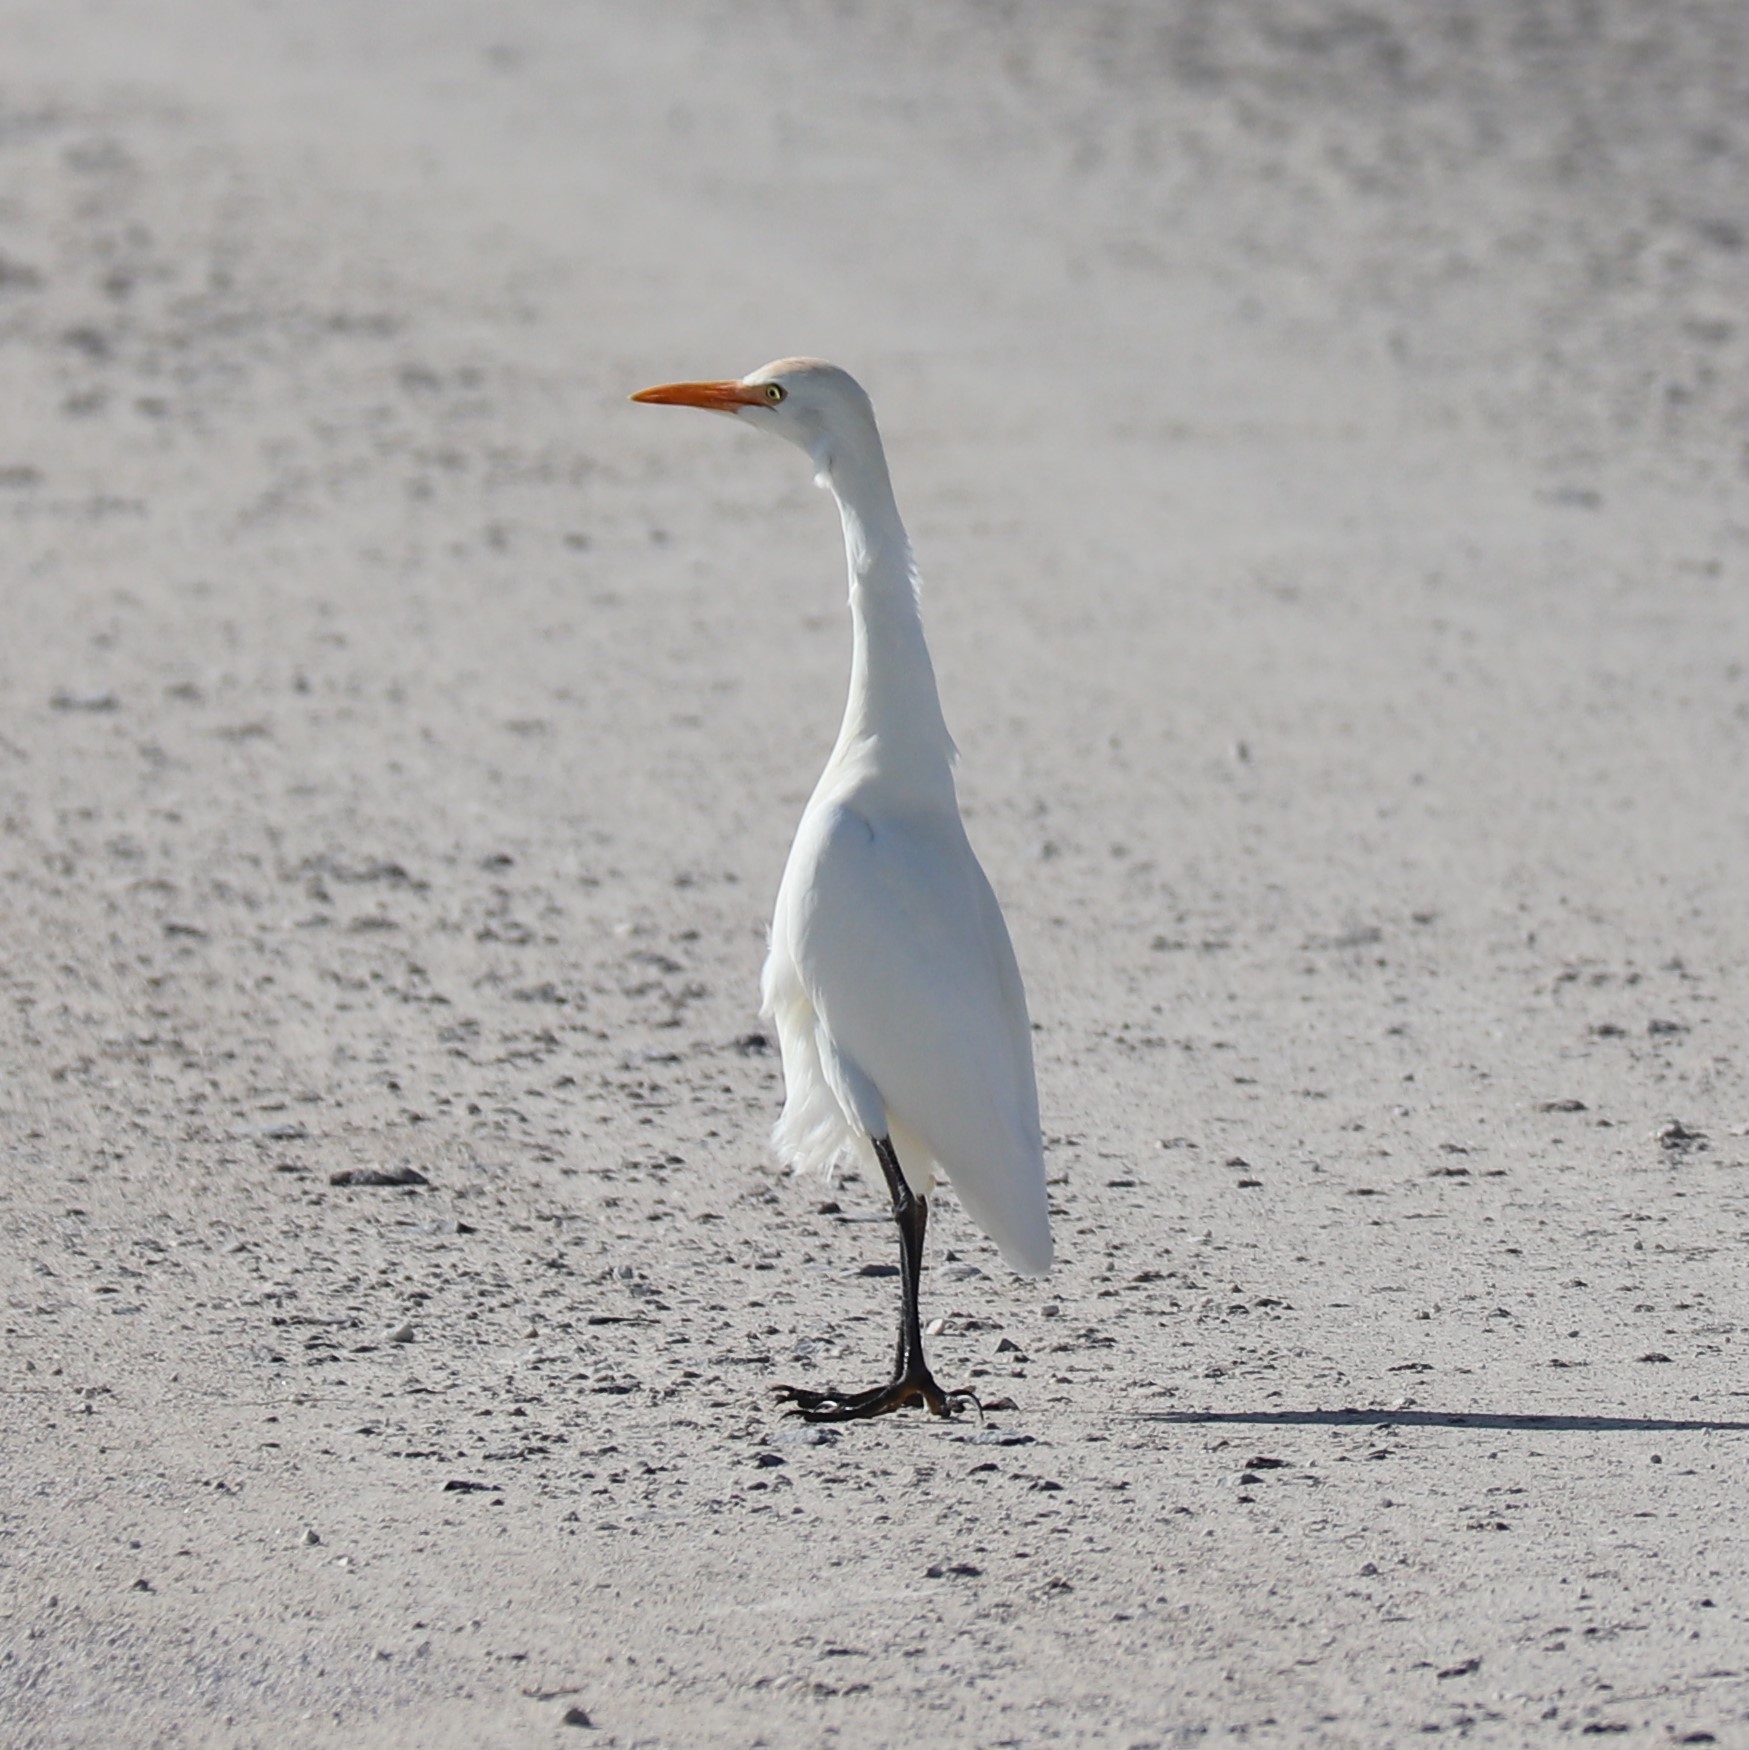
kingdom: Animalia
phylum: Chordata
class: Aves
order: Pelecaniformes
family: Ardeidae
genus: Bubulcus
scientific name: Bubulcus ibis
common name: Cattle egret
